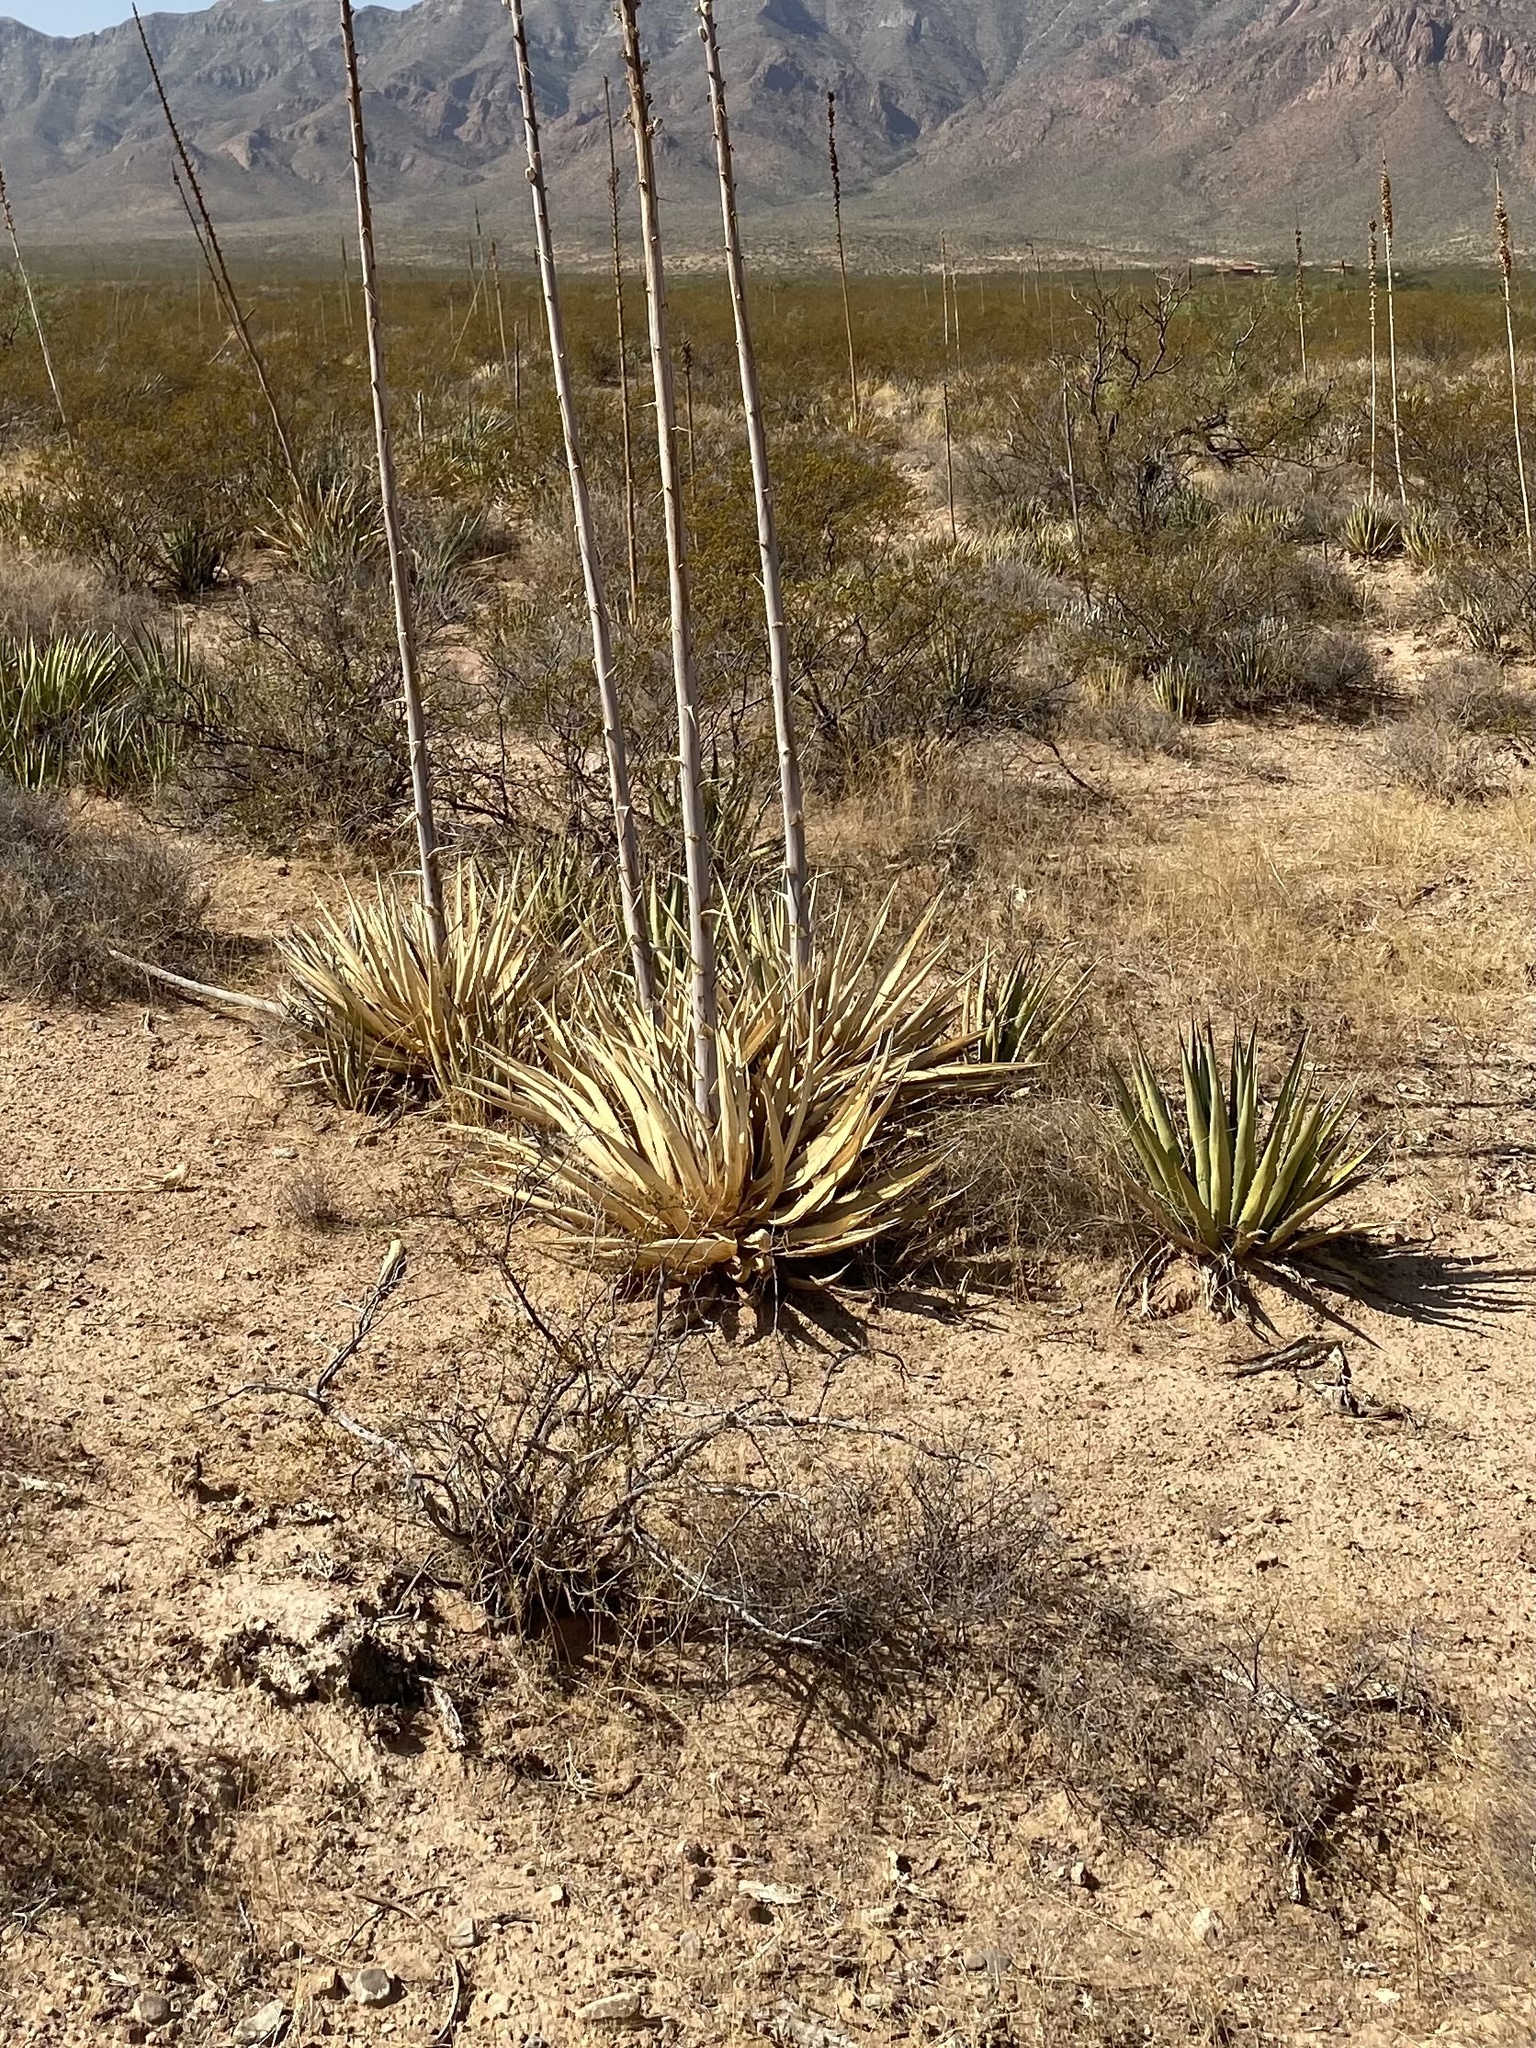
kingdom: Plantae
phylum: Tracheophyta
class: Liliopsida
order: Asparagales
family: Asparagaceae
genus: Agave
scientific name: Agave lechuguilla
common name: Lecheguilla agave
